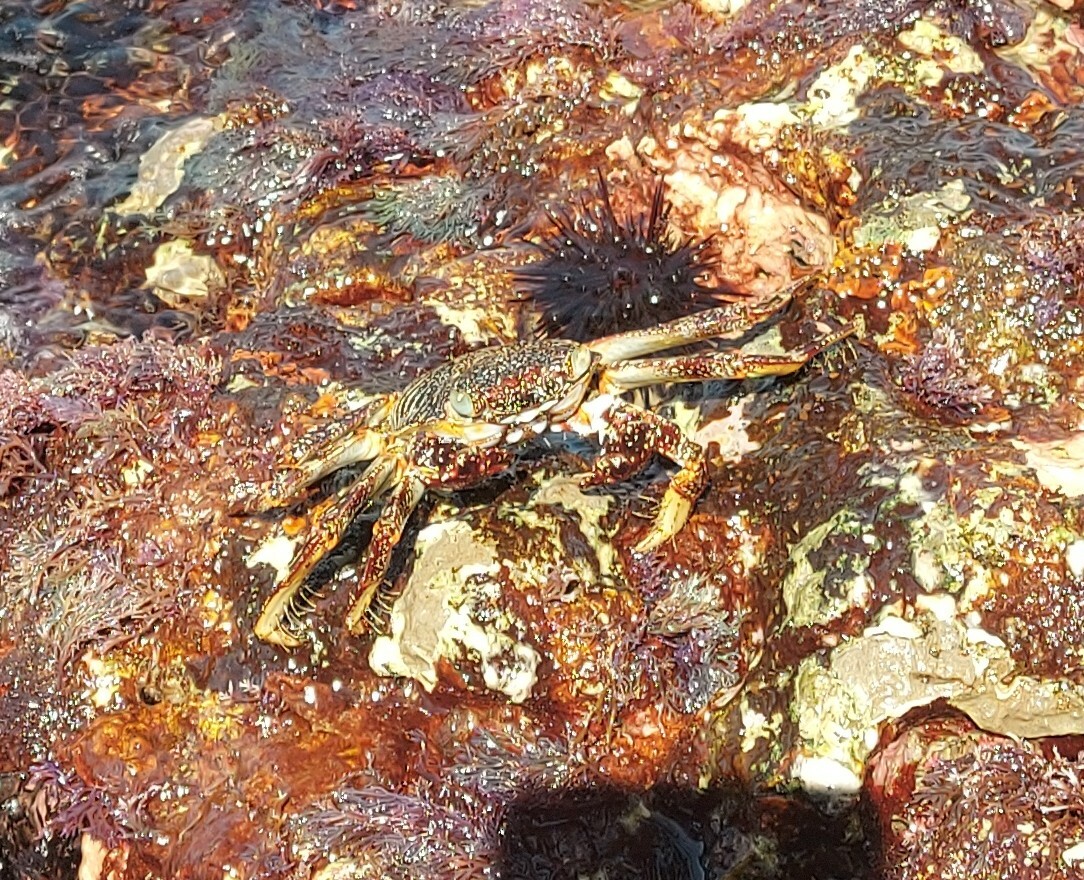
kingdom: Animalia
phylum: Arthropoda
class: Malacostraca
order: Decapoda
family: Grapsidae
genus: Grapsus
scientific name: Grapsus grapsus
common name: Sally lightfoot
